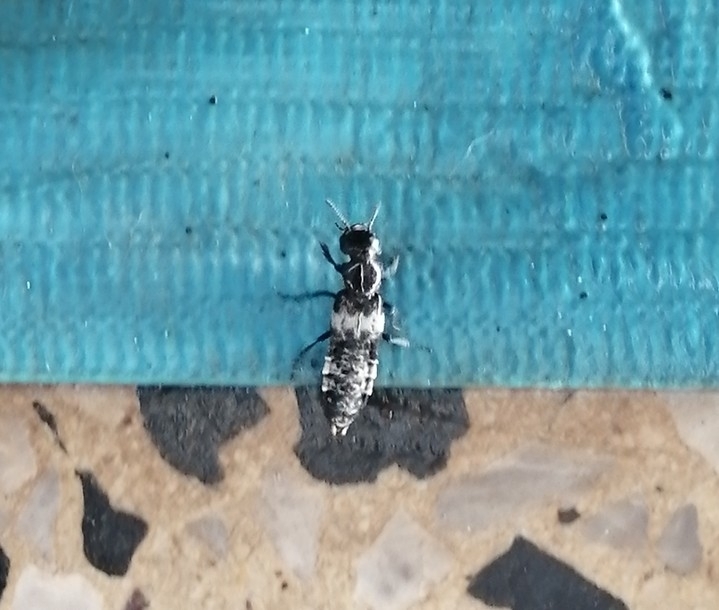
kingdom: Animalia
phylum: Arthropoda
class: Insecta
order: Coleoptera
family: Staphylinidae
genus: Creophilus
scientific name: Creophilus maxillosus
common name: Hairy rove beetle
